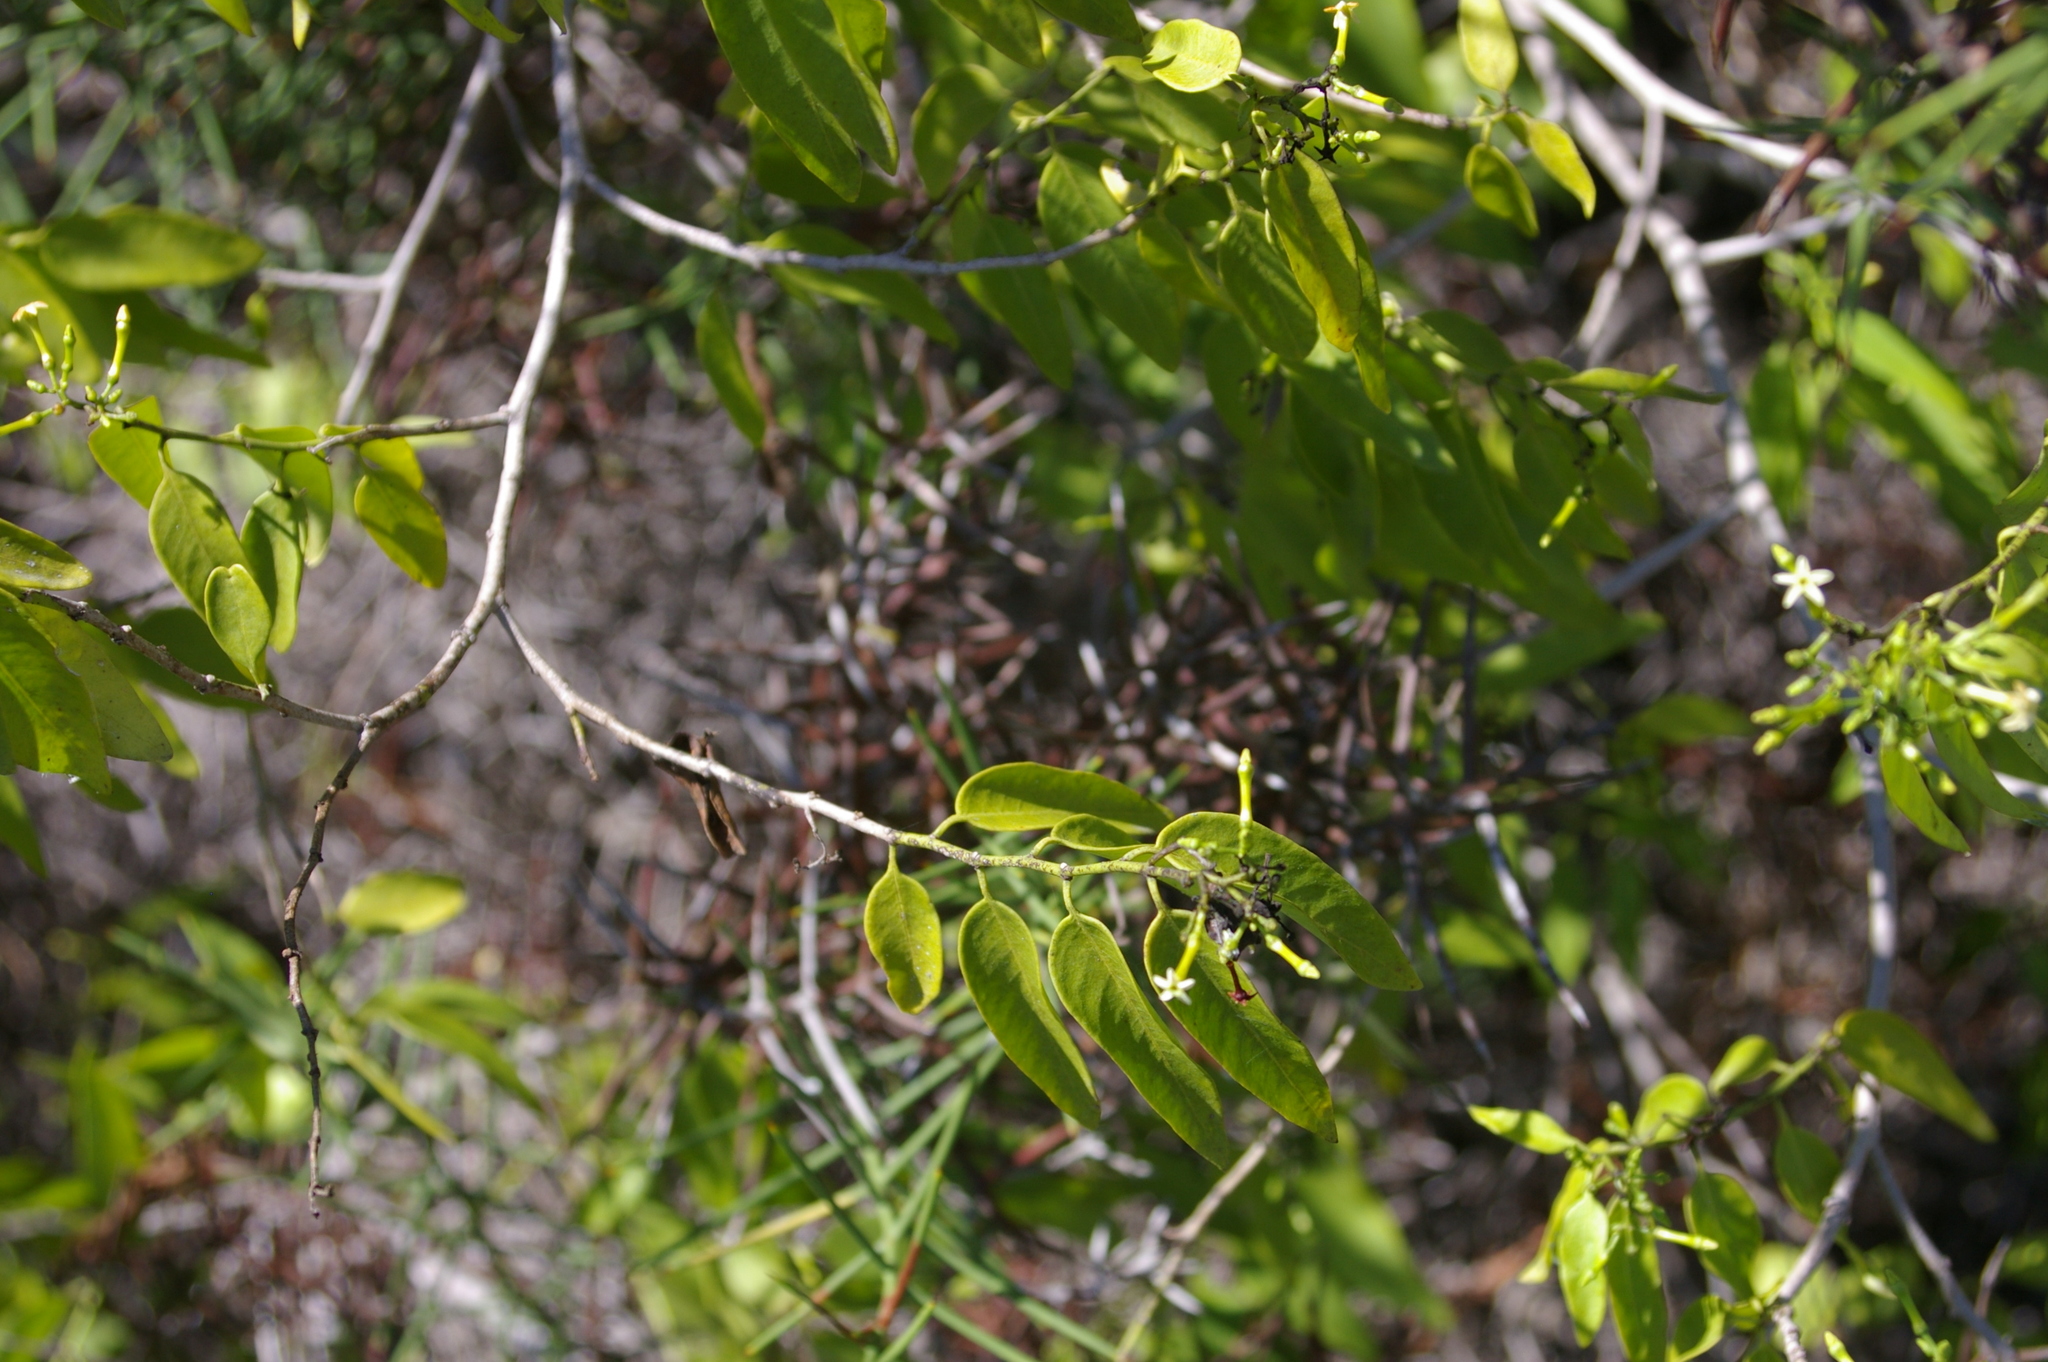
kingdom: Plantae
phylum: Tracheophyta
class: Magnoliopsida
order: Gentianales
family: Apocynaceae
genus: Vallesia
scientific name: Vallesia glabra
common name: Pearlberry
